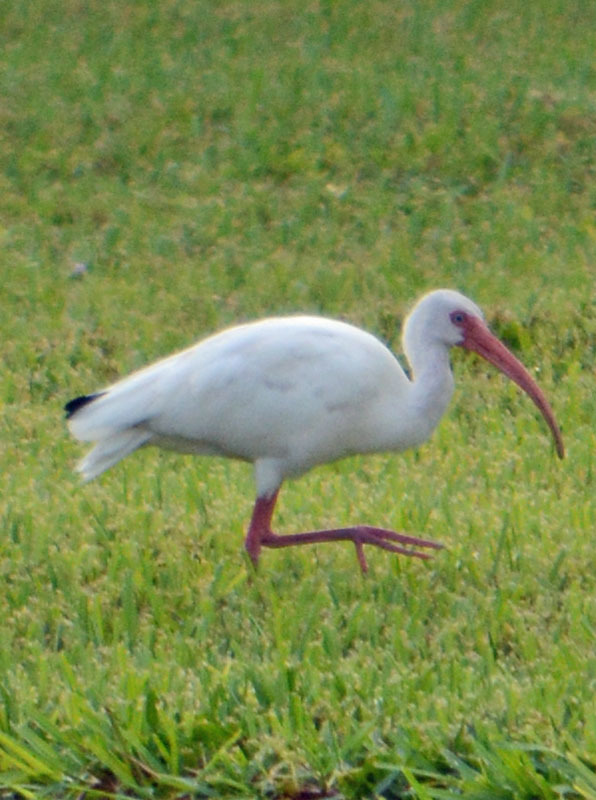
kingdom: Animalia
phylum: Chordata
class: Aves
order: Pelecaniformes
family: Threskiornithidae
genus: Eudocimus
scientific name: Eudocimus albus
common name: White ibis
